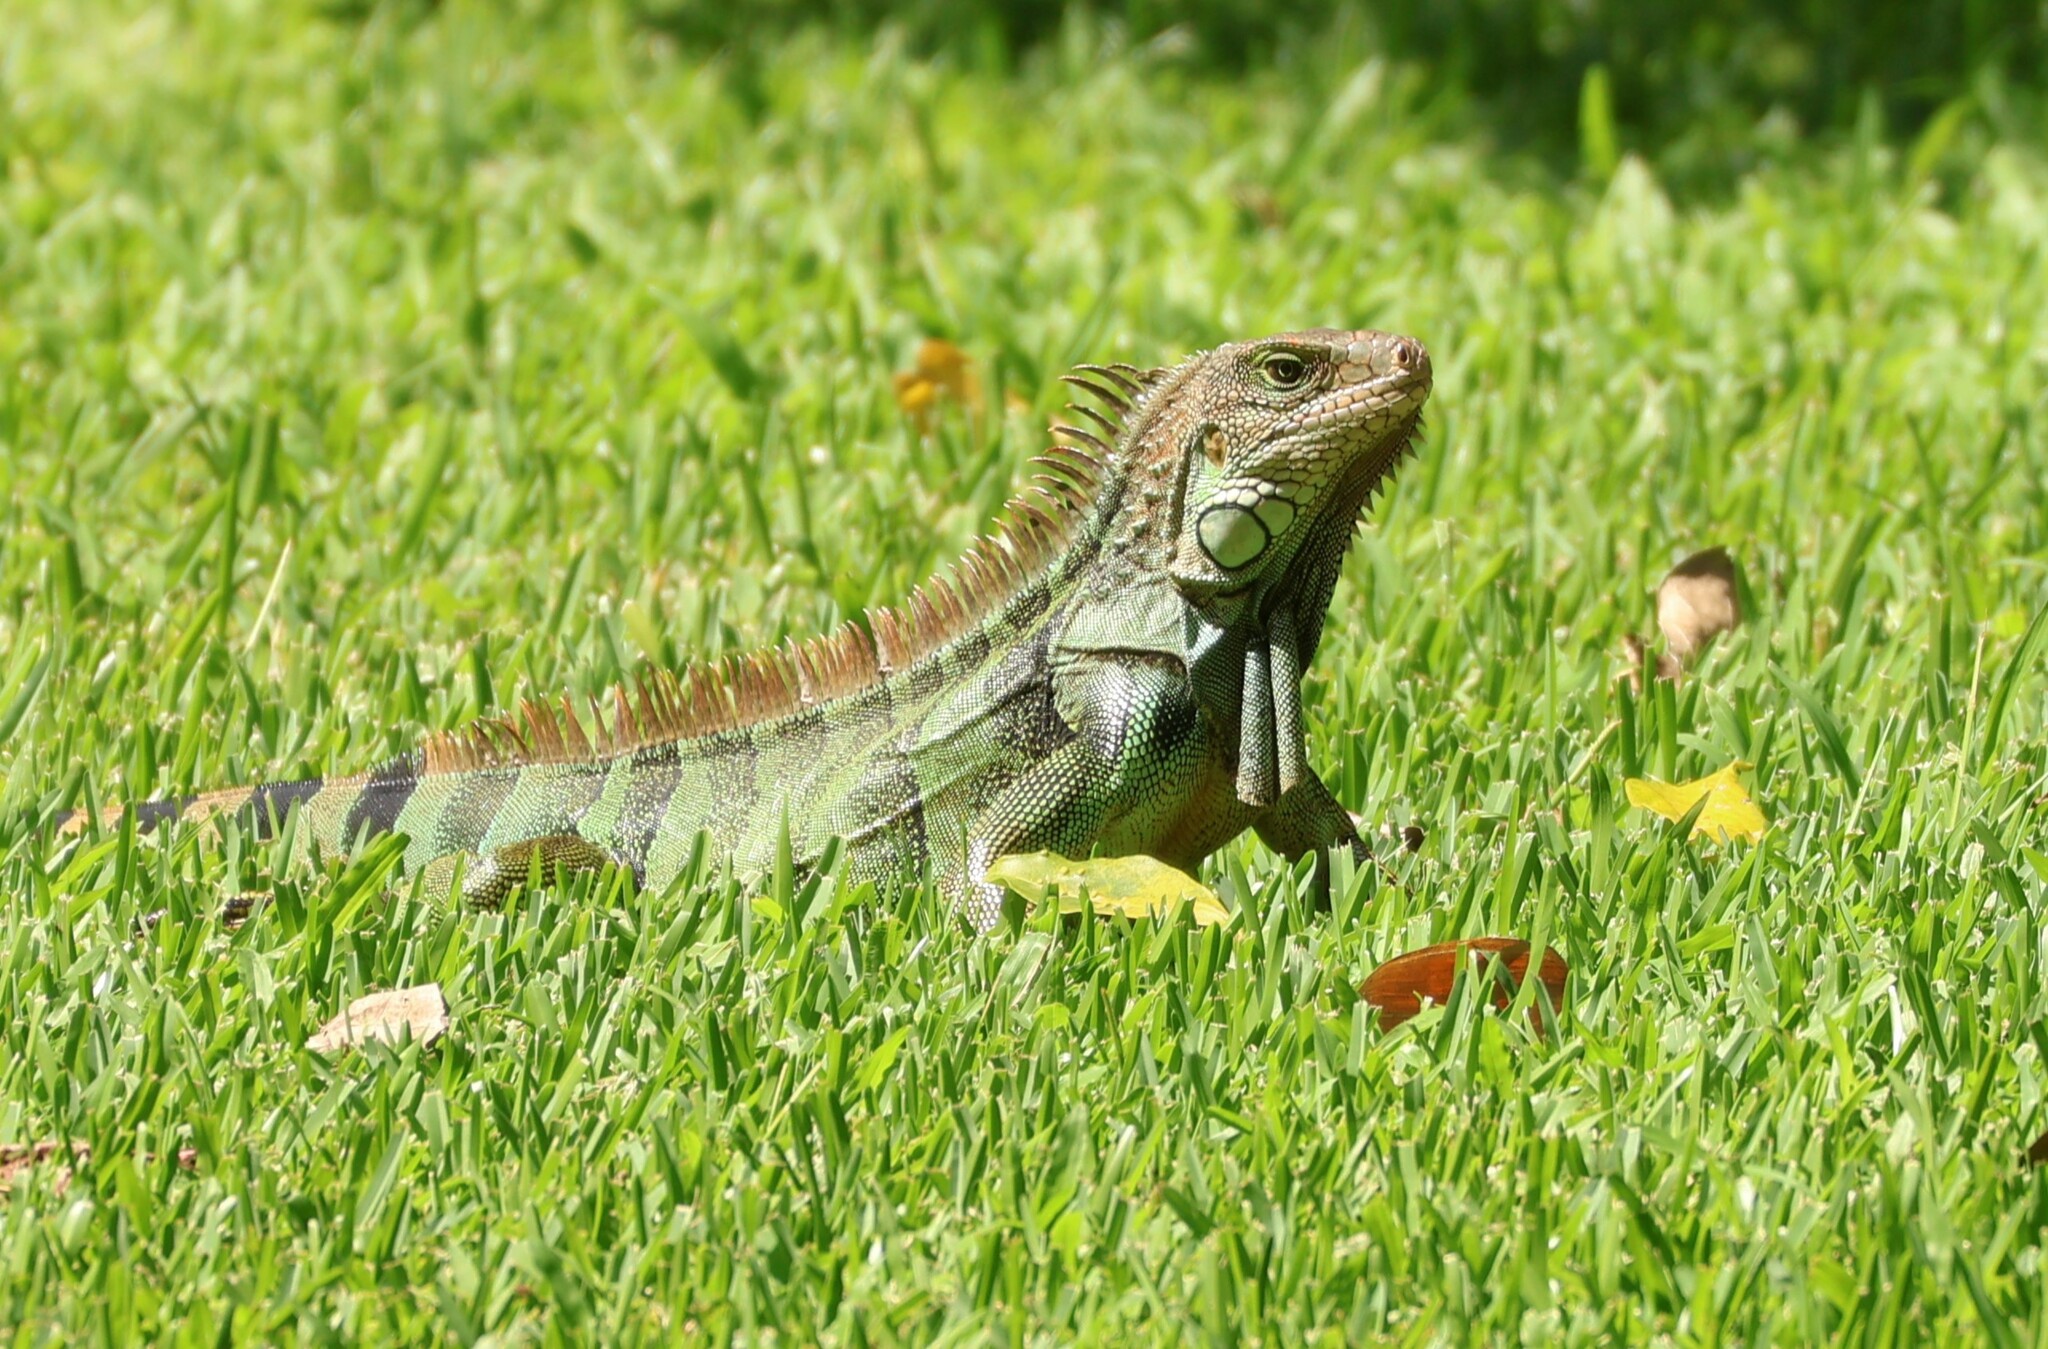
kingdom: Animalia
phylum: Chordata
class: Squamata
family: Iguanidae
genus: Iguana
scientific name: Iguana iguana
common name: Green iguana
